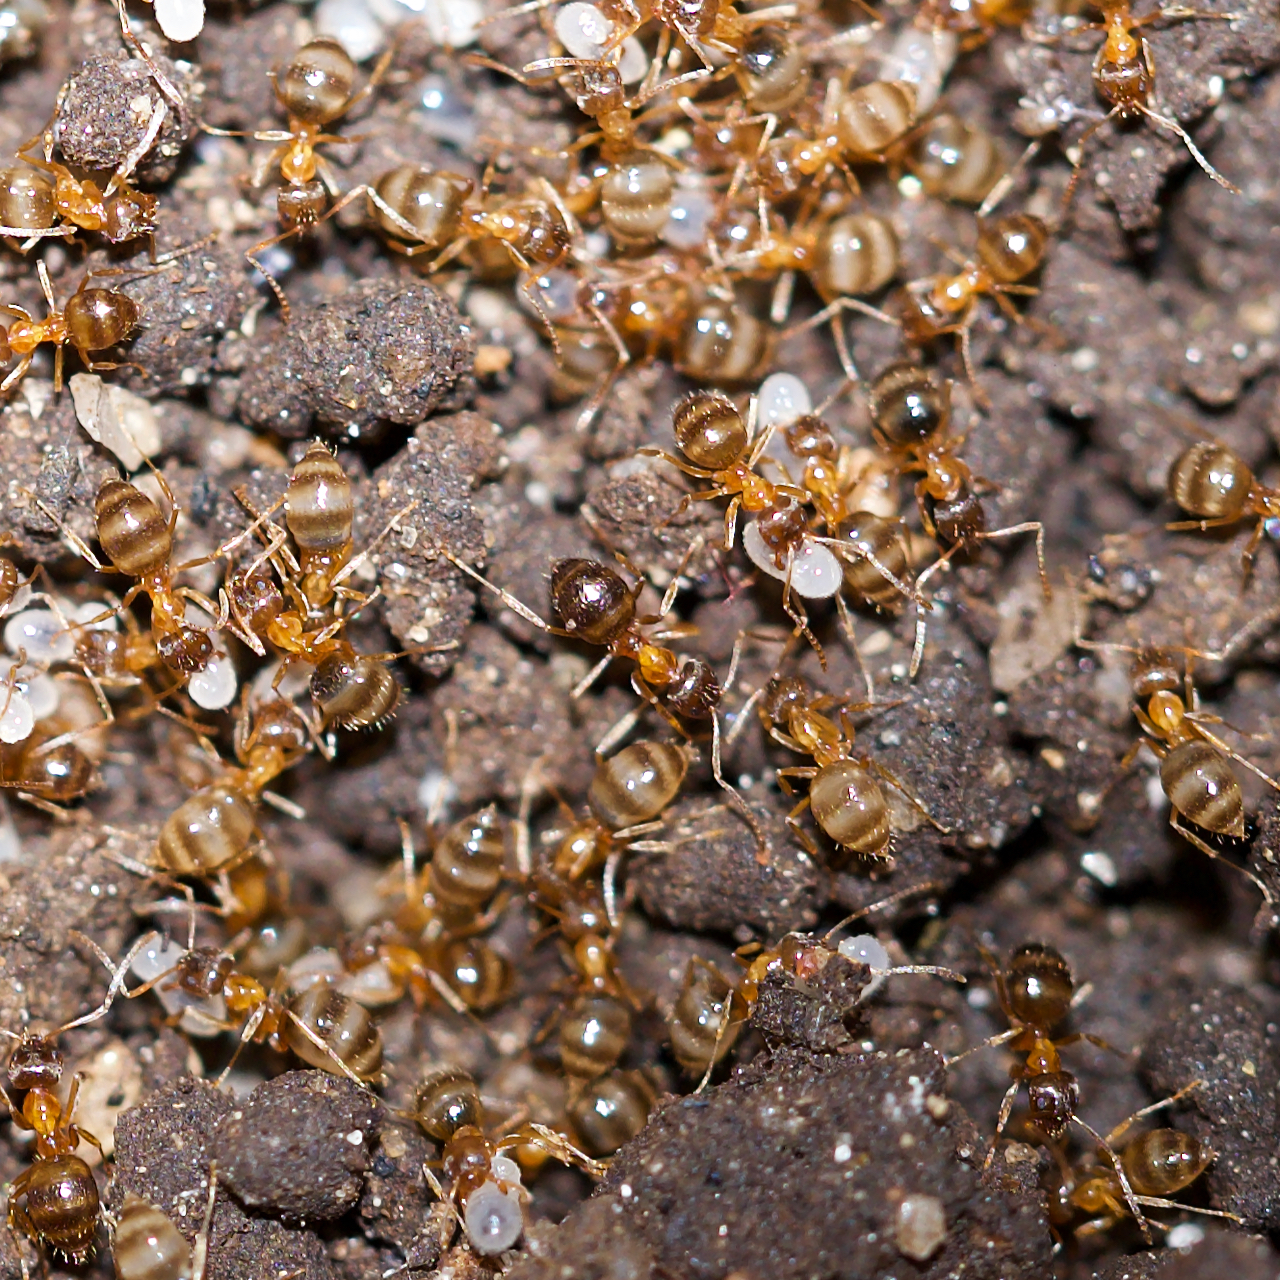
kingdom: Animalia
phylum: Arthropoda
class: Insecta
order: Hymenoptera
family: Formicidae
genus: Paratrechina
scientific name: Paratrechina flavipes
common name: Eastern asian formicine ant
